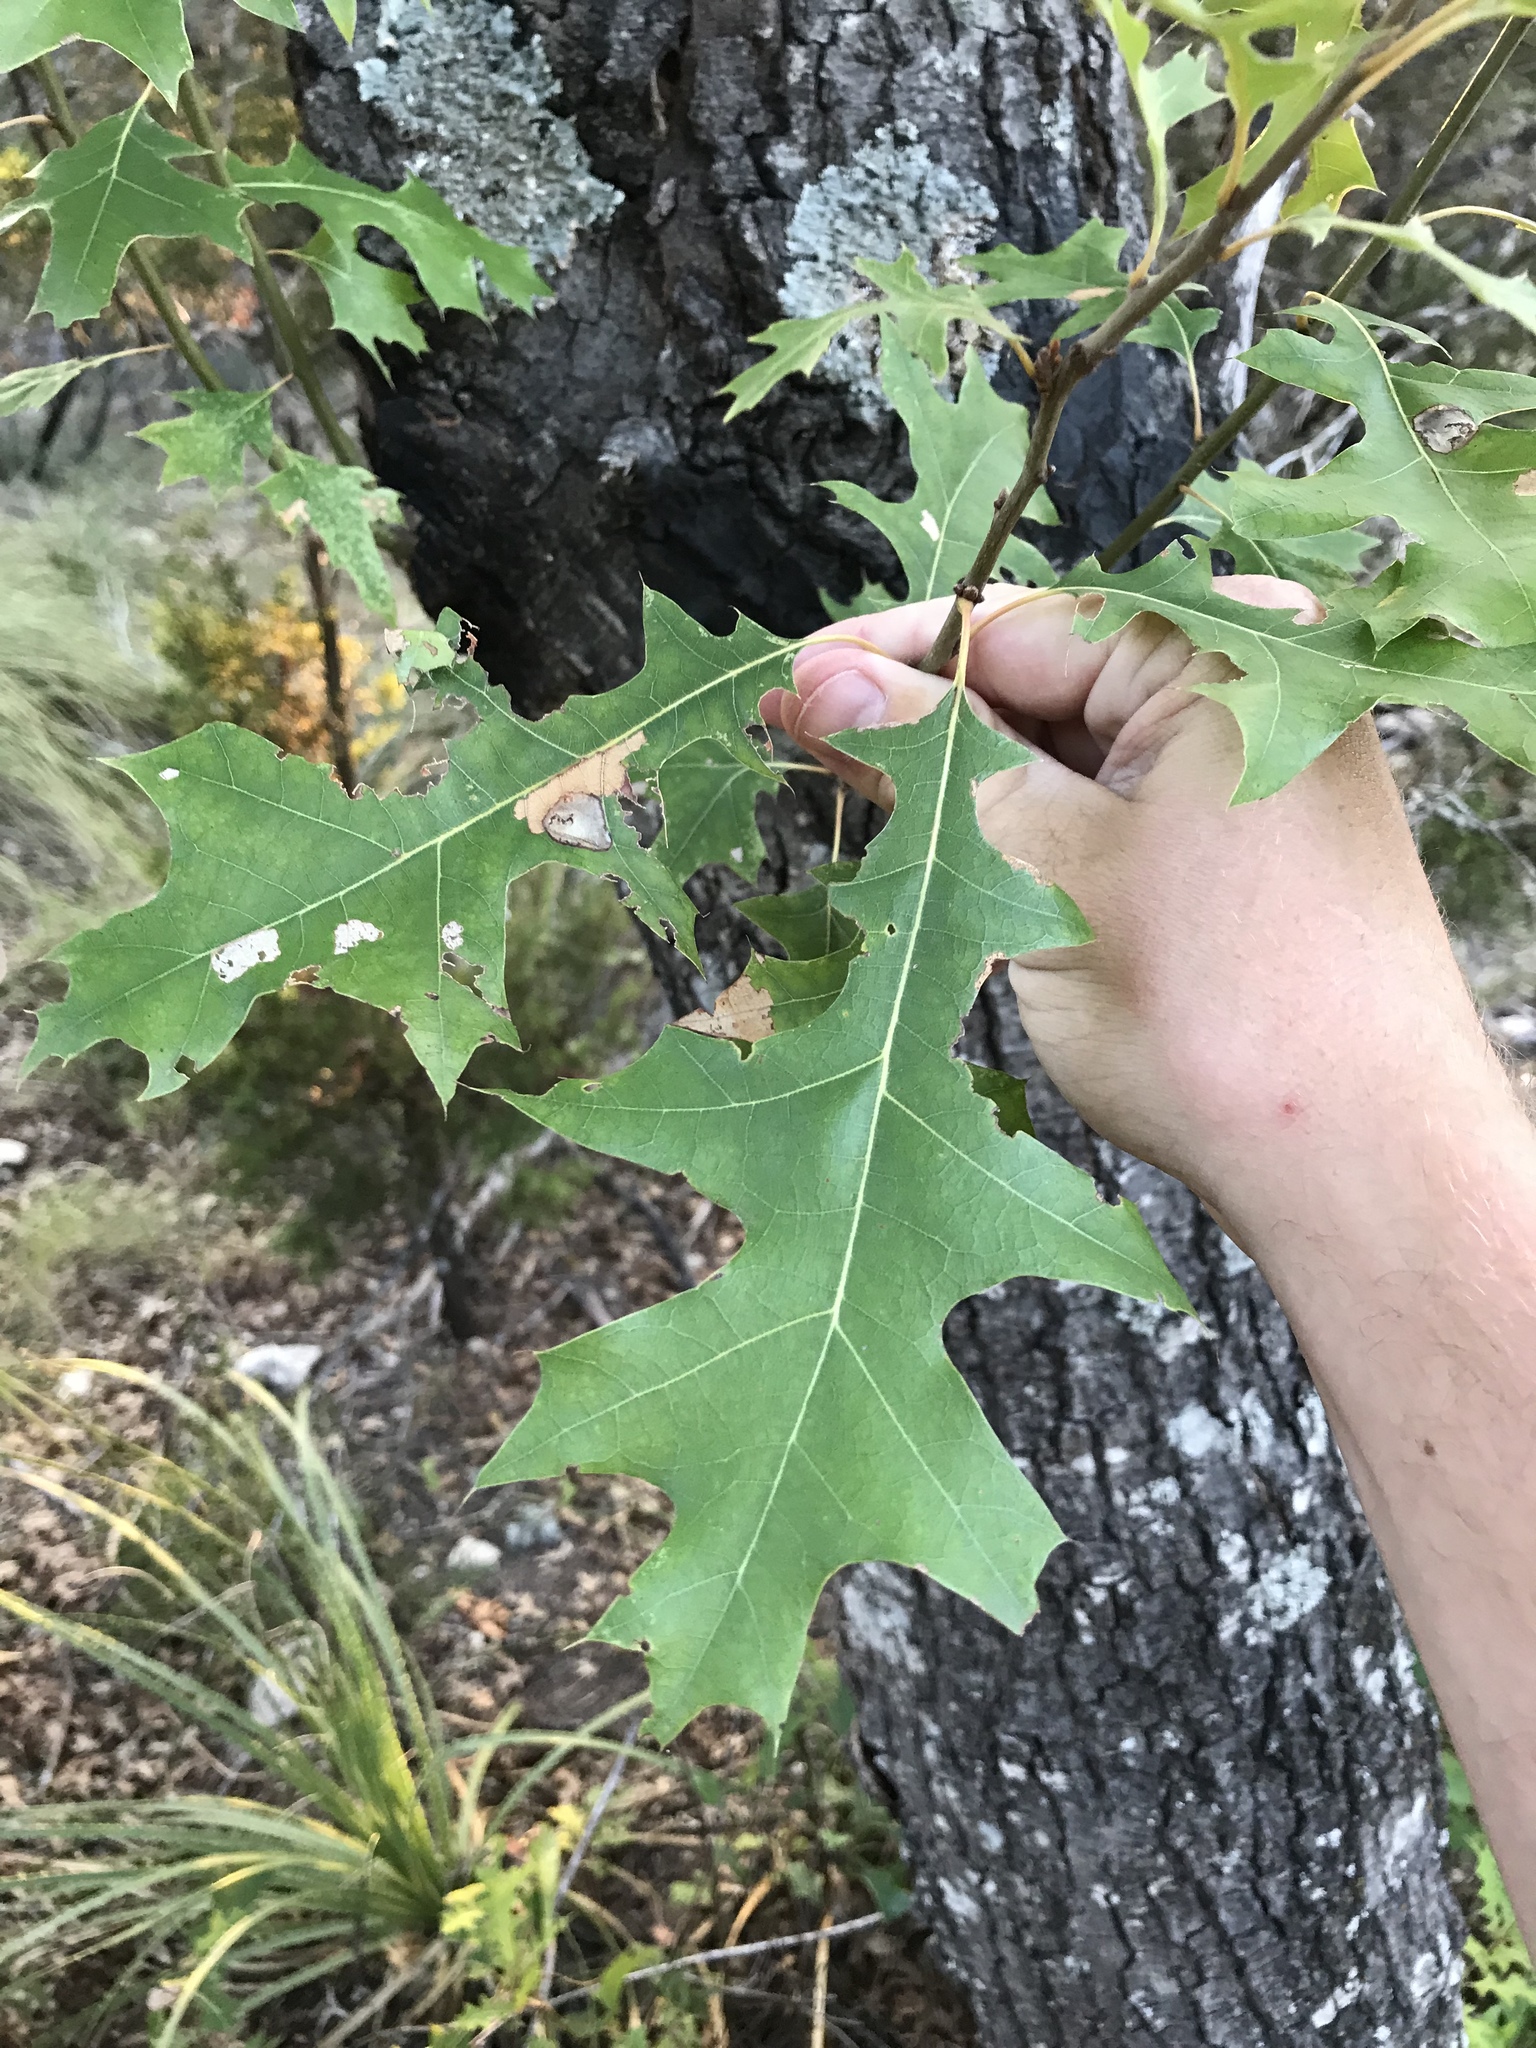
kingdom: Plantae
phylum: Tracheophyta
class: Magnoliopsida
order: Fagales
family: Fagaceae
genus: Quercus
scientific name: Quercus buckleyi
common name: Buckley oak
